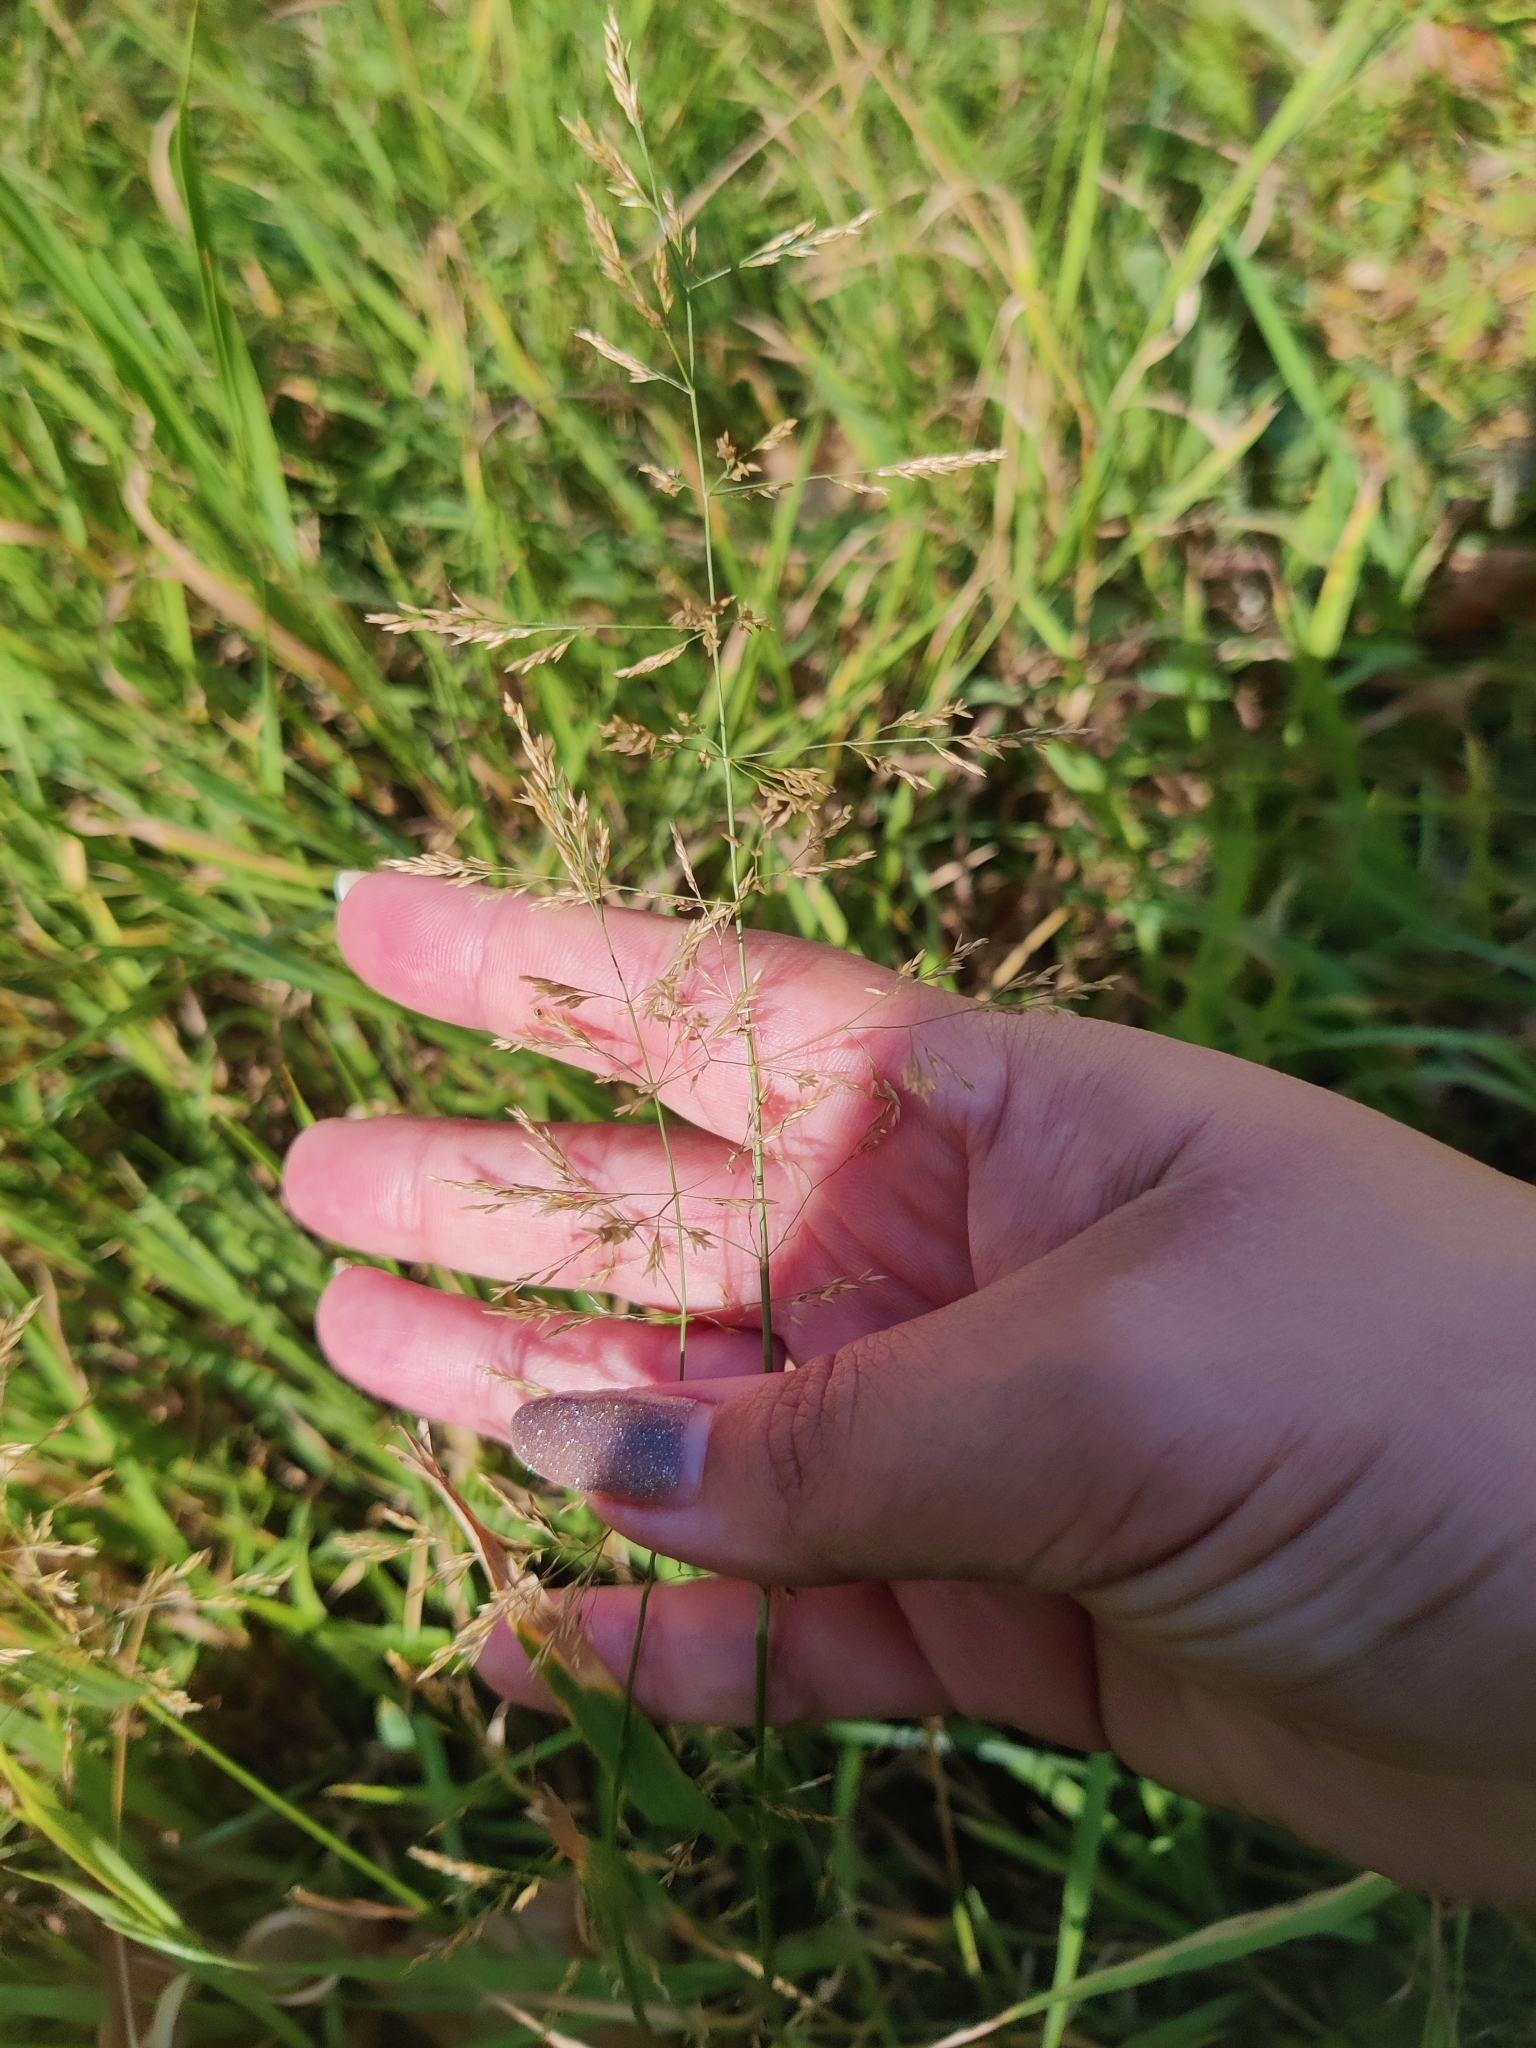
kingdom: Plantae
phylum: Tracheophyta
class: Liliopsida
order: Poales
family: Poaceae
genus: Agrostis
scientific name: Agrostis gigantea
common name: Black bent
